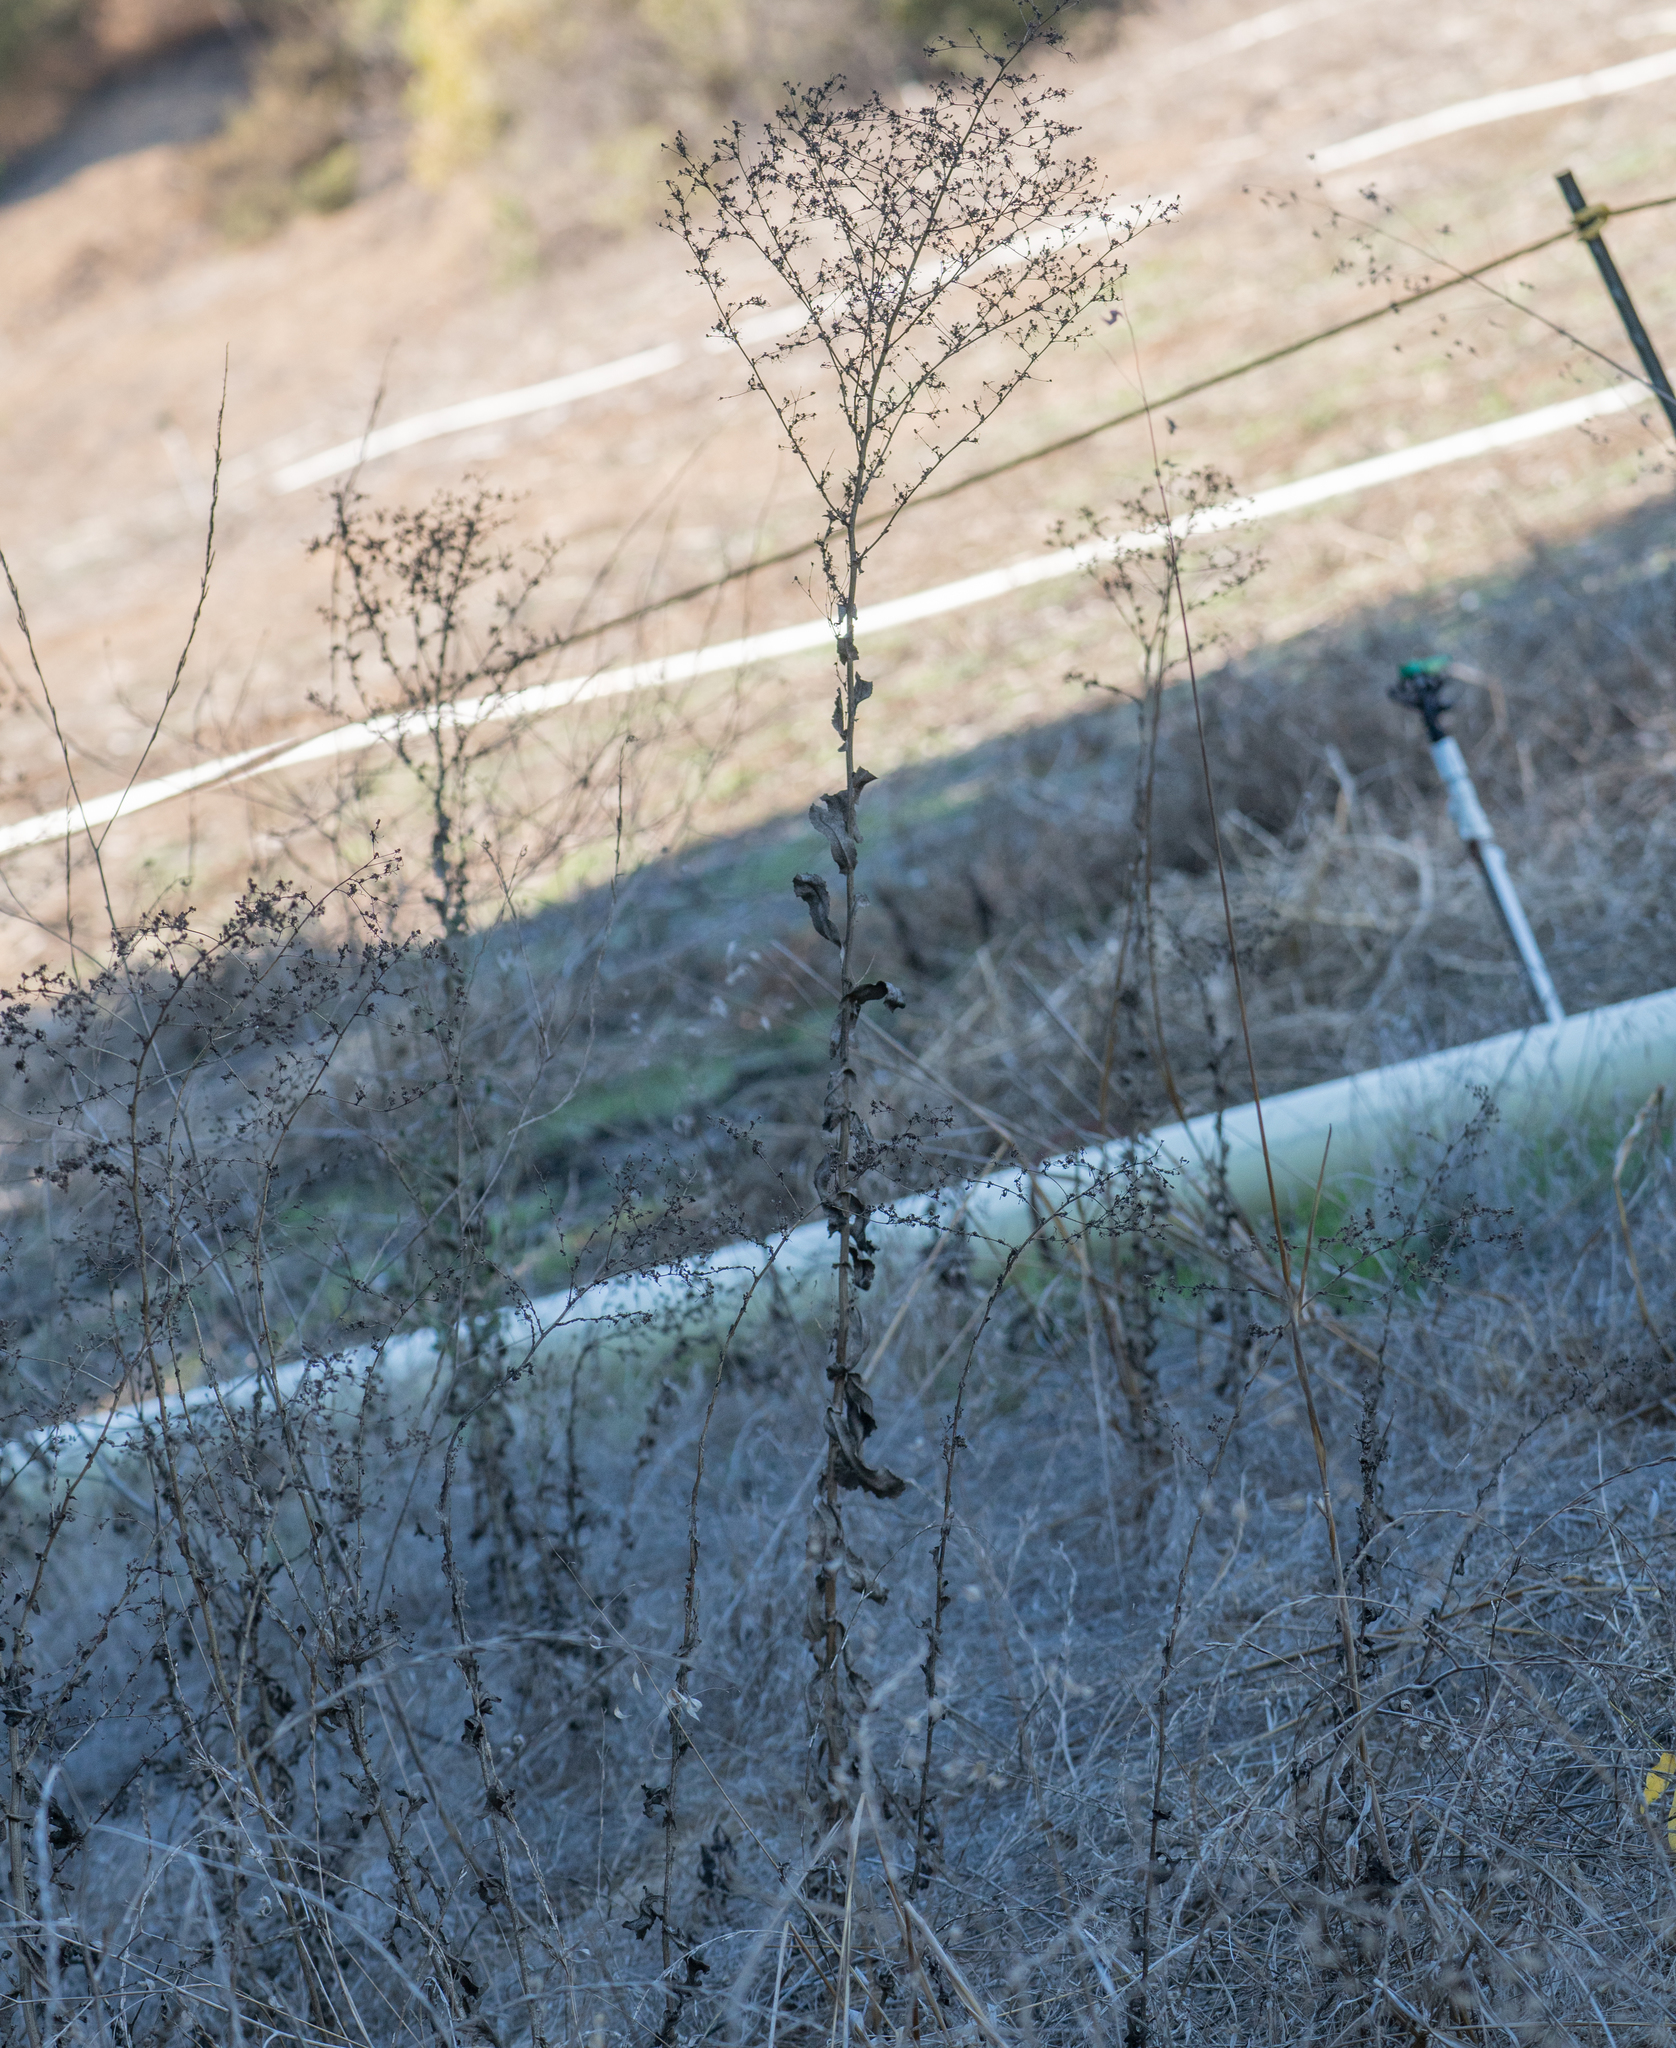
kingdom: Plantae
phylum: Tracheophyta
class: Magnoliopsida
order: Asterales
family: Asteraceae
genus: Lactuca
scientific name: Lactuca serriola
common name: Prickly lettuce
